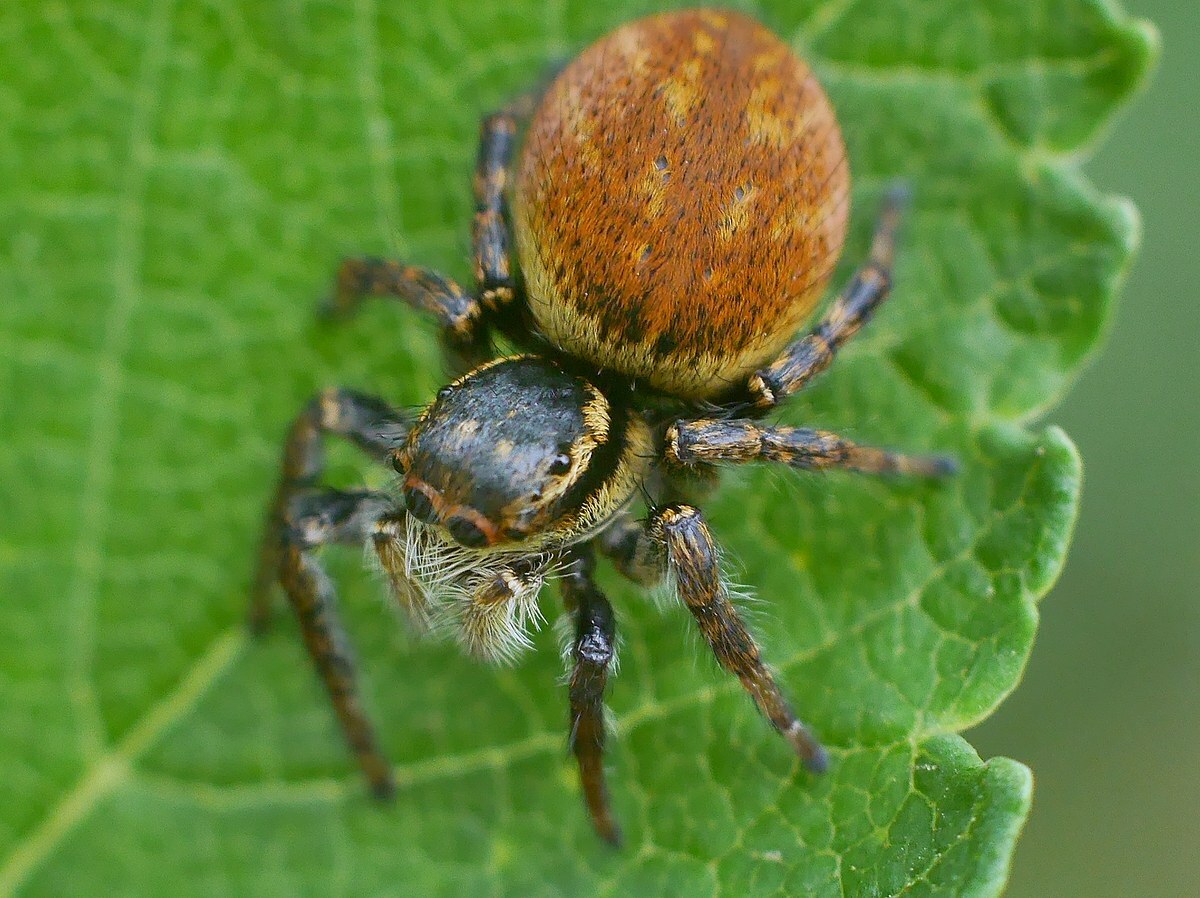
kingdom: Animalia
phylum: Arthropoda
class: Arachnida
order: Araneae
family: Salticidae
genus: Carrhotus
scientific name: Carrhotus xanthogramma
